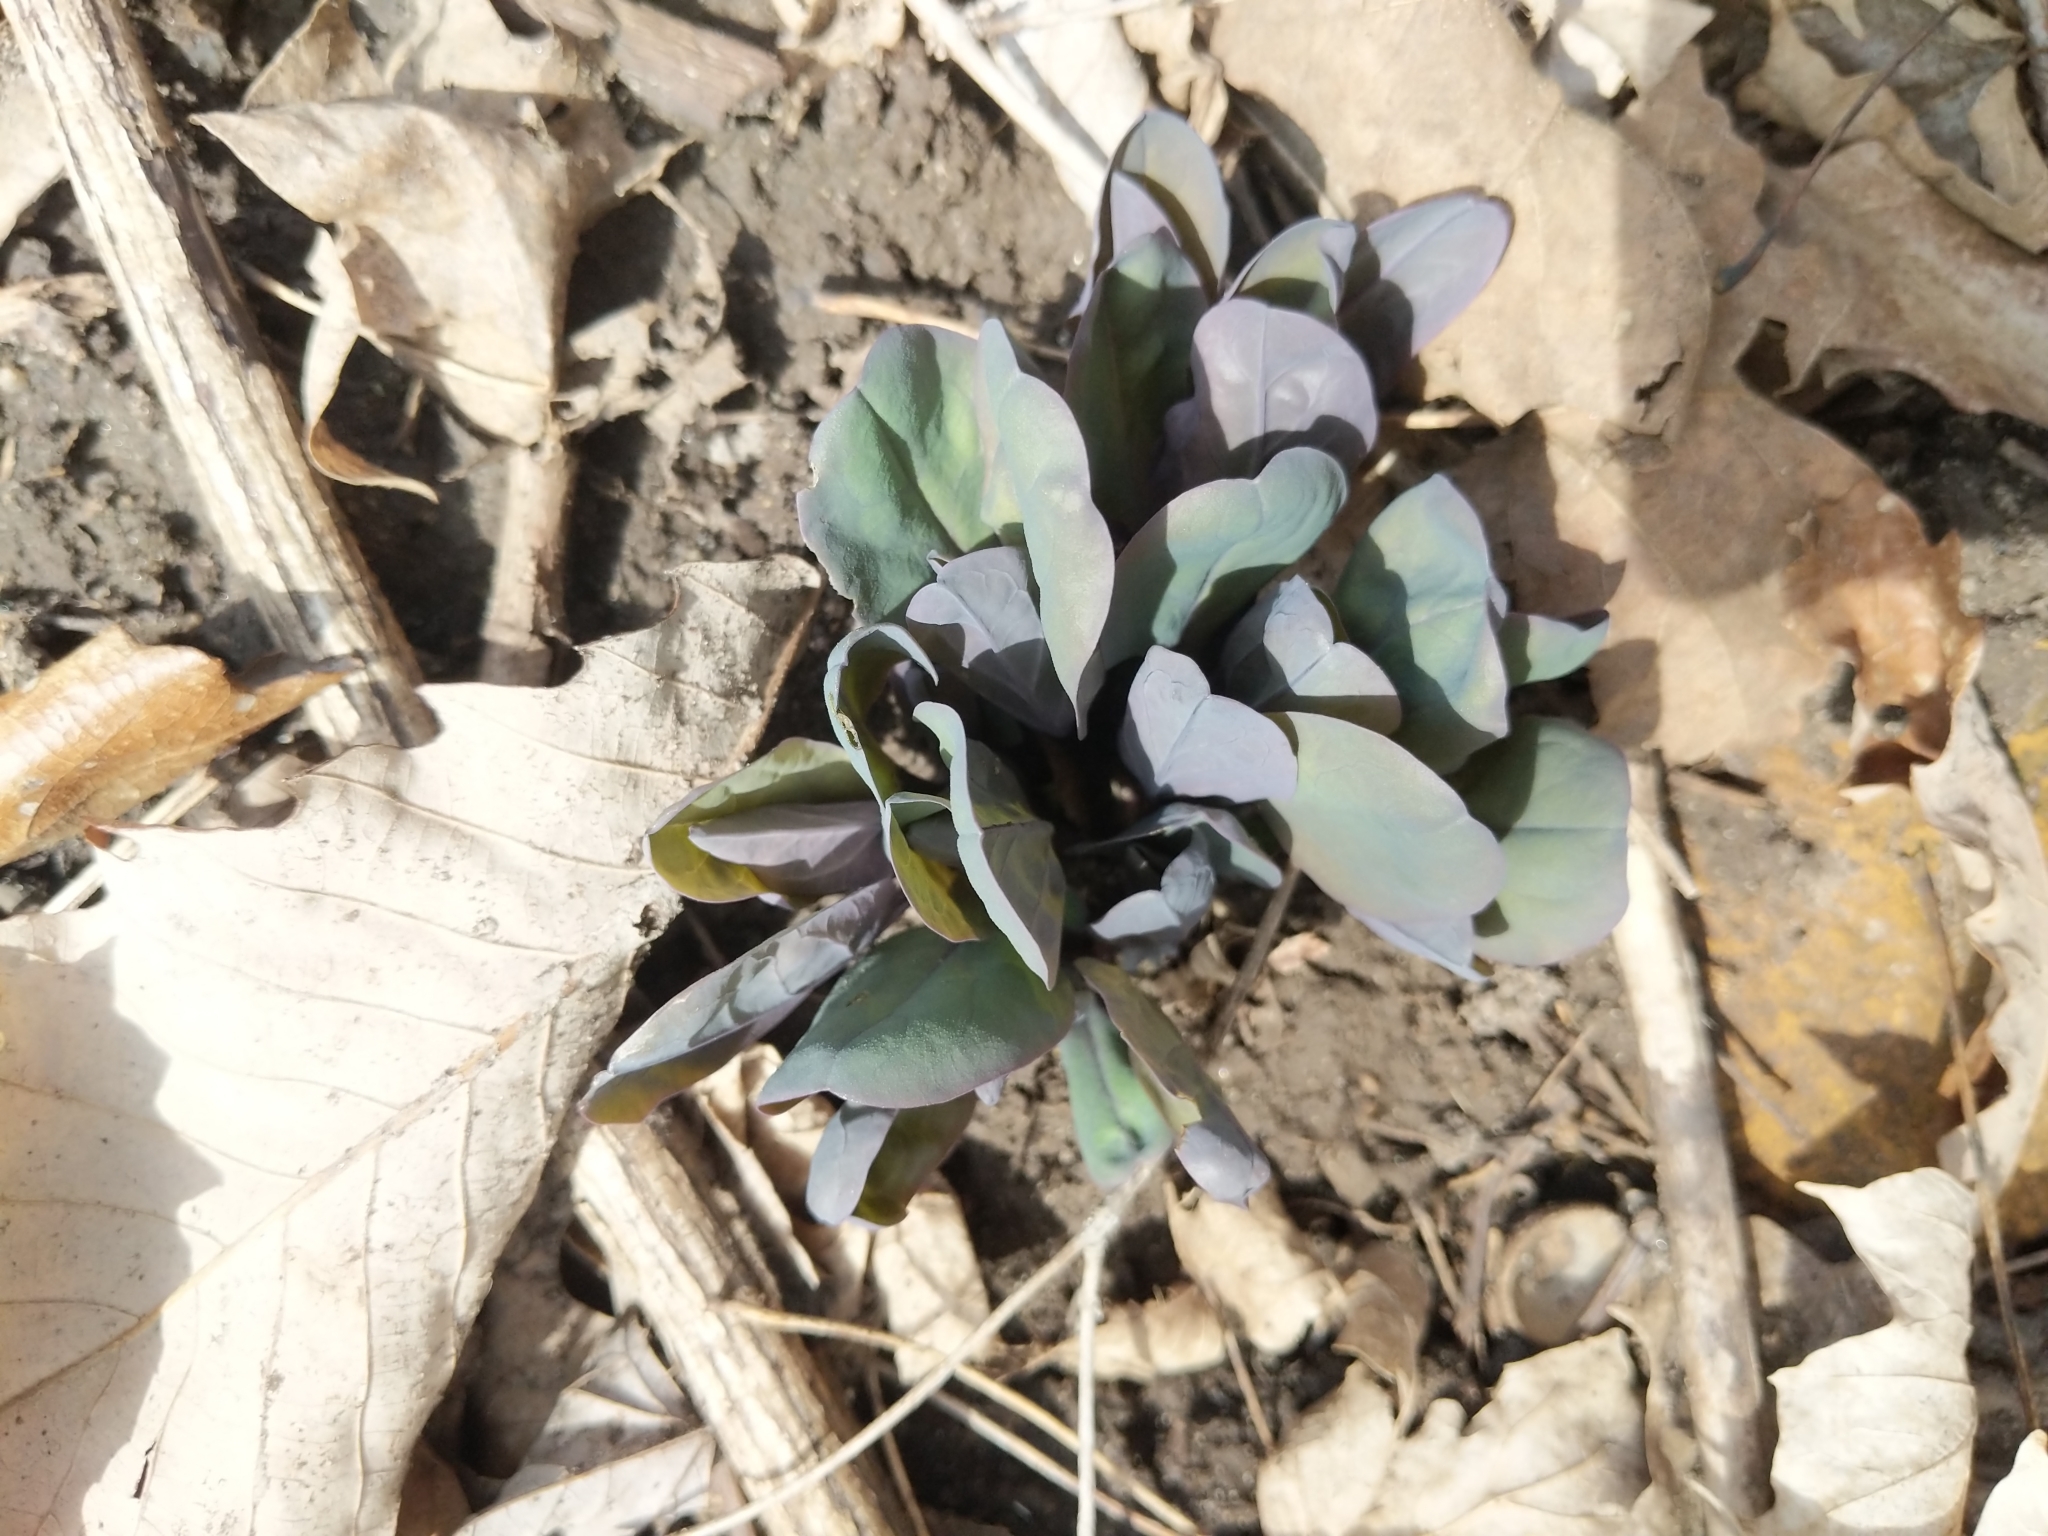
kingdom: Plantae
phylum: Tracheophyta
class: Magnoliopsida
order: Boraginales
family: Boraginaceae
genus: Mertensia
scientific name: Mertensia virginica
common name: Virginia bluebells
